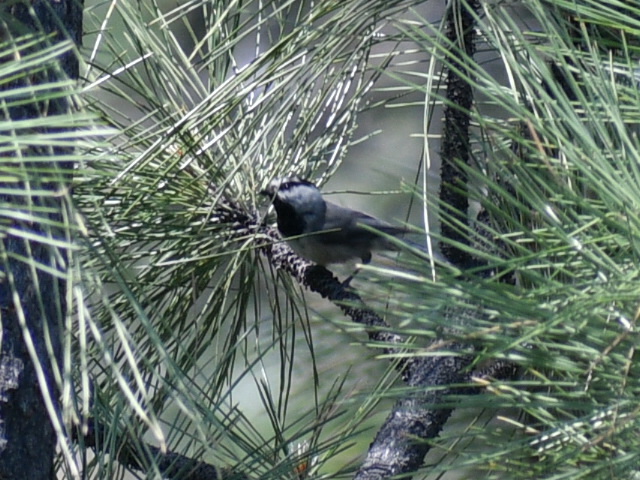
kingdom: Animalia
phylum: Chordata
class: Aves
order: Passeriformes
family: Paridae
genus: Poecile
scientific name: Poecile gambeli
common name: Mountain chickadee
